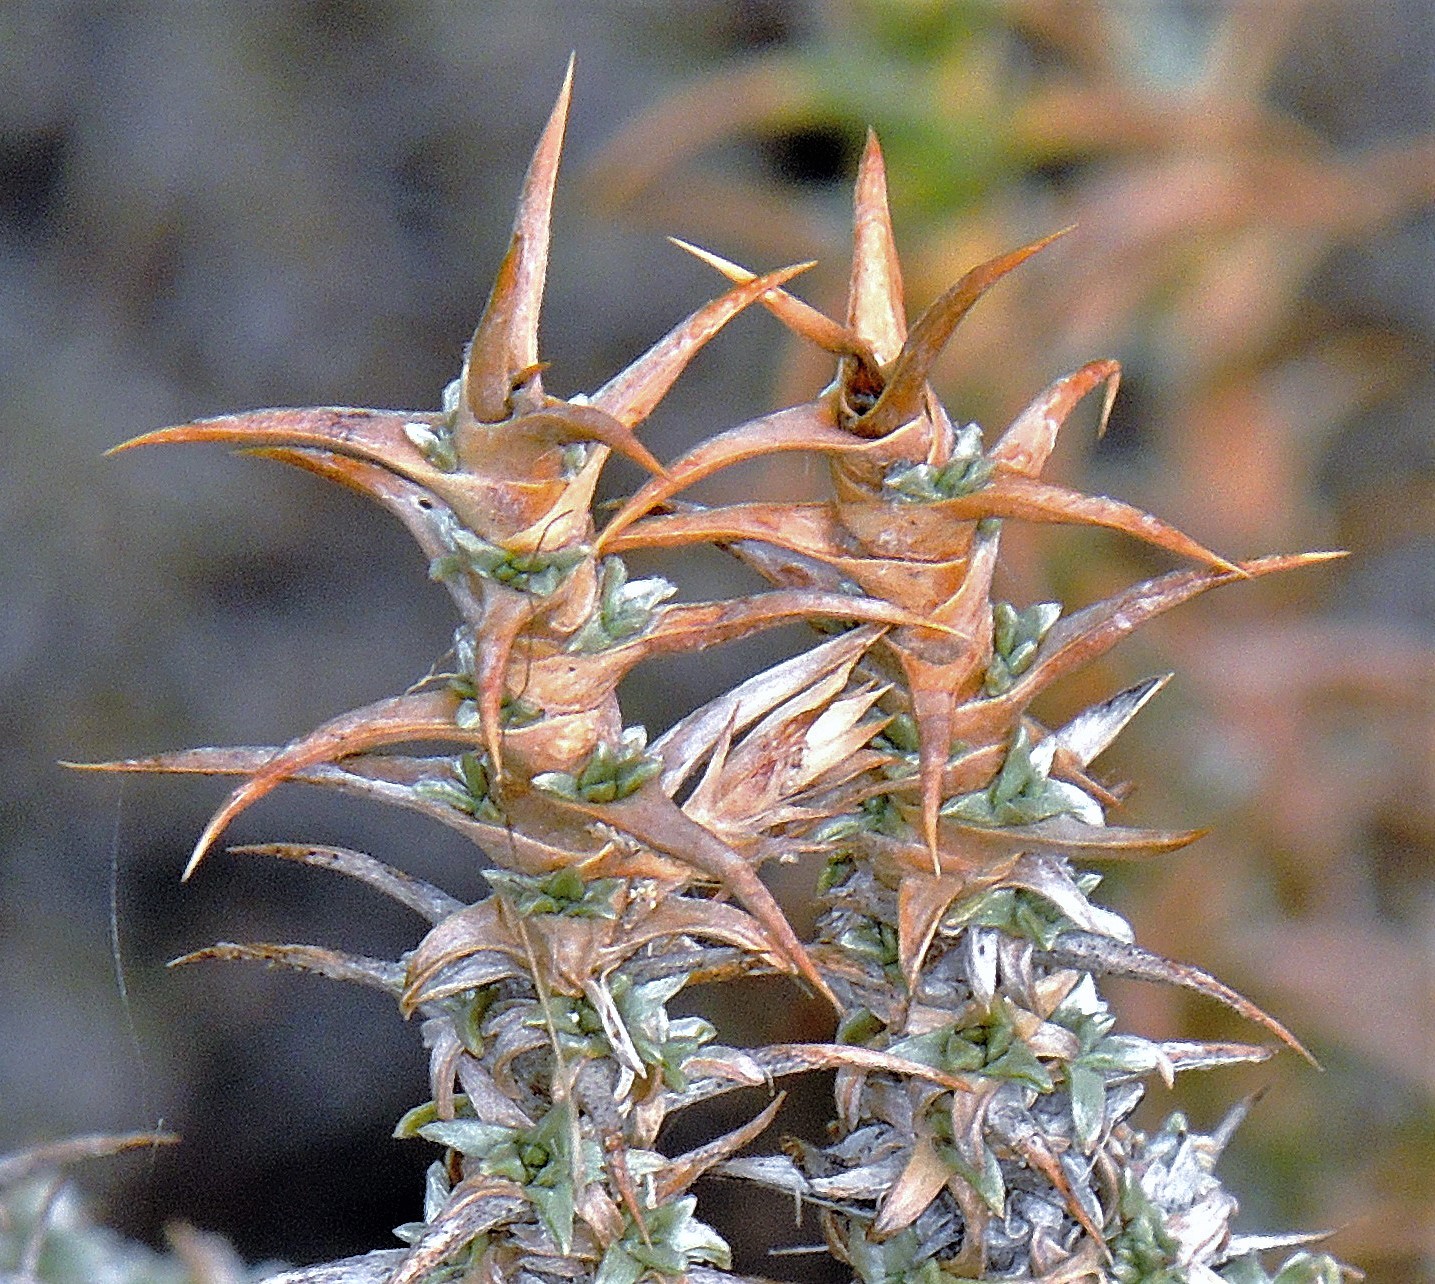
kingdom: Plantae
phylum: Tracheophyta
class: Magnoliopsida
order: Asterales
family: Asteraceae
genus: Nassauvia
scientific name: Nassauvia axillaris
